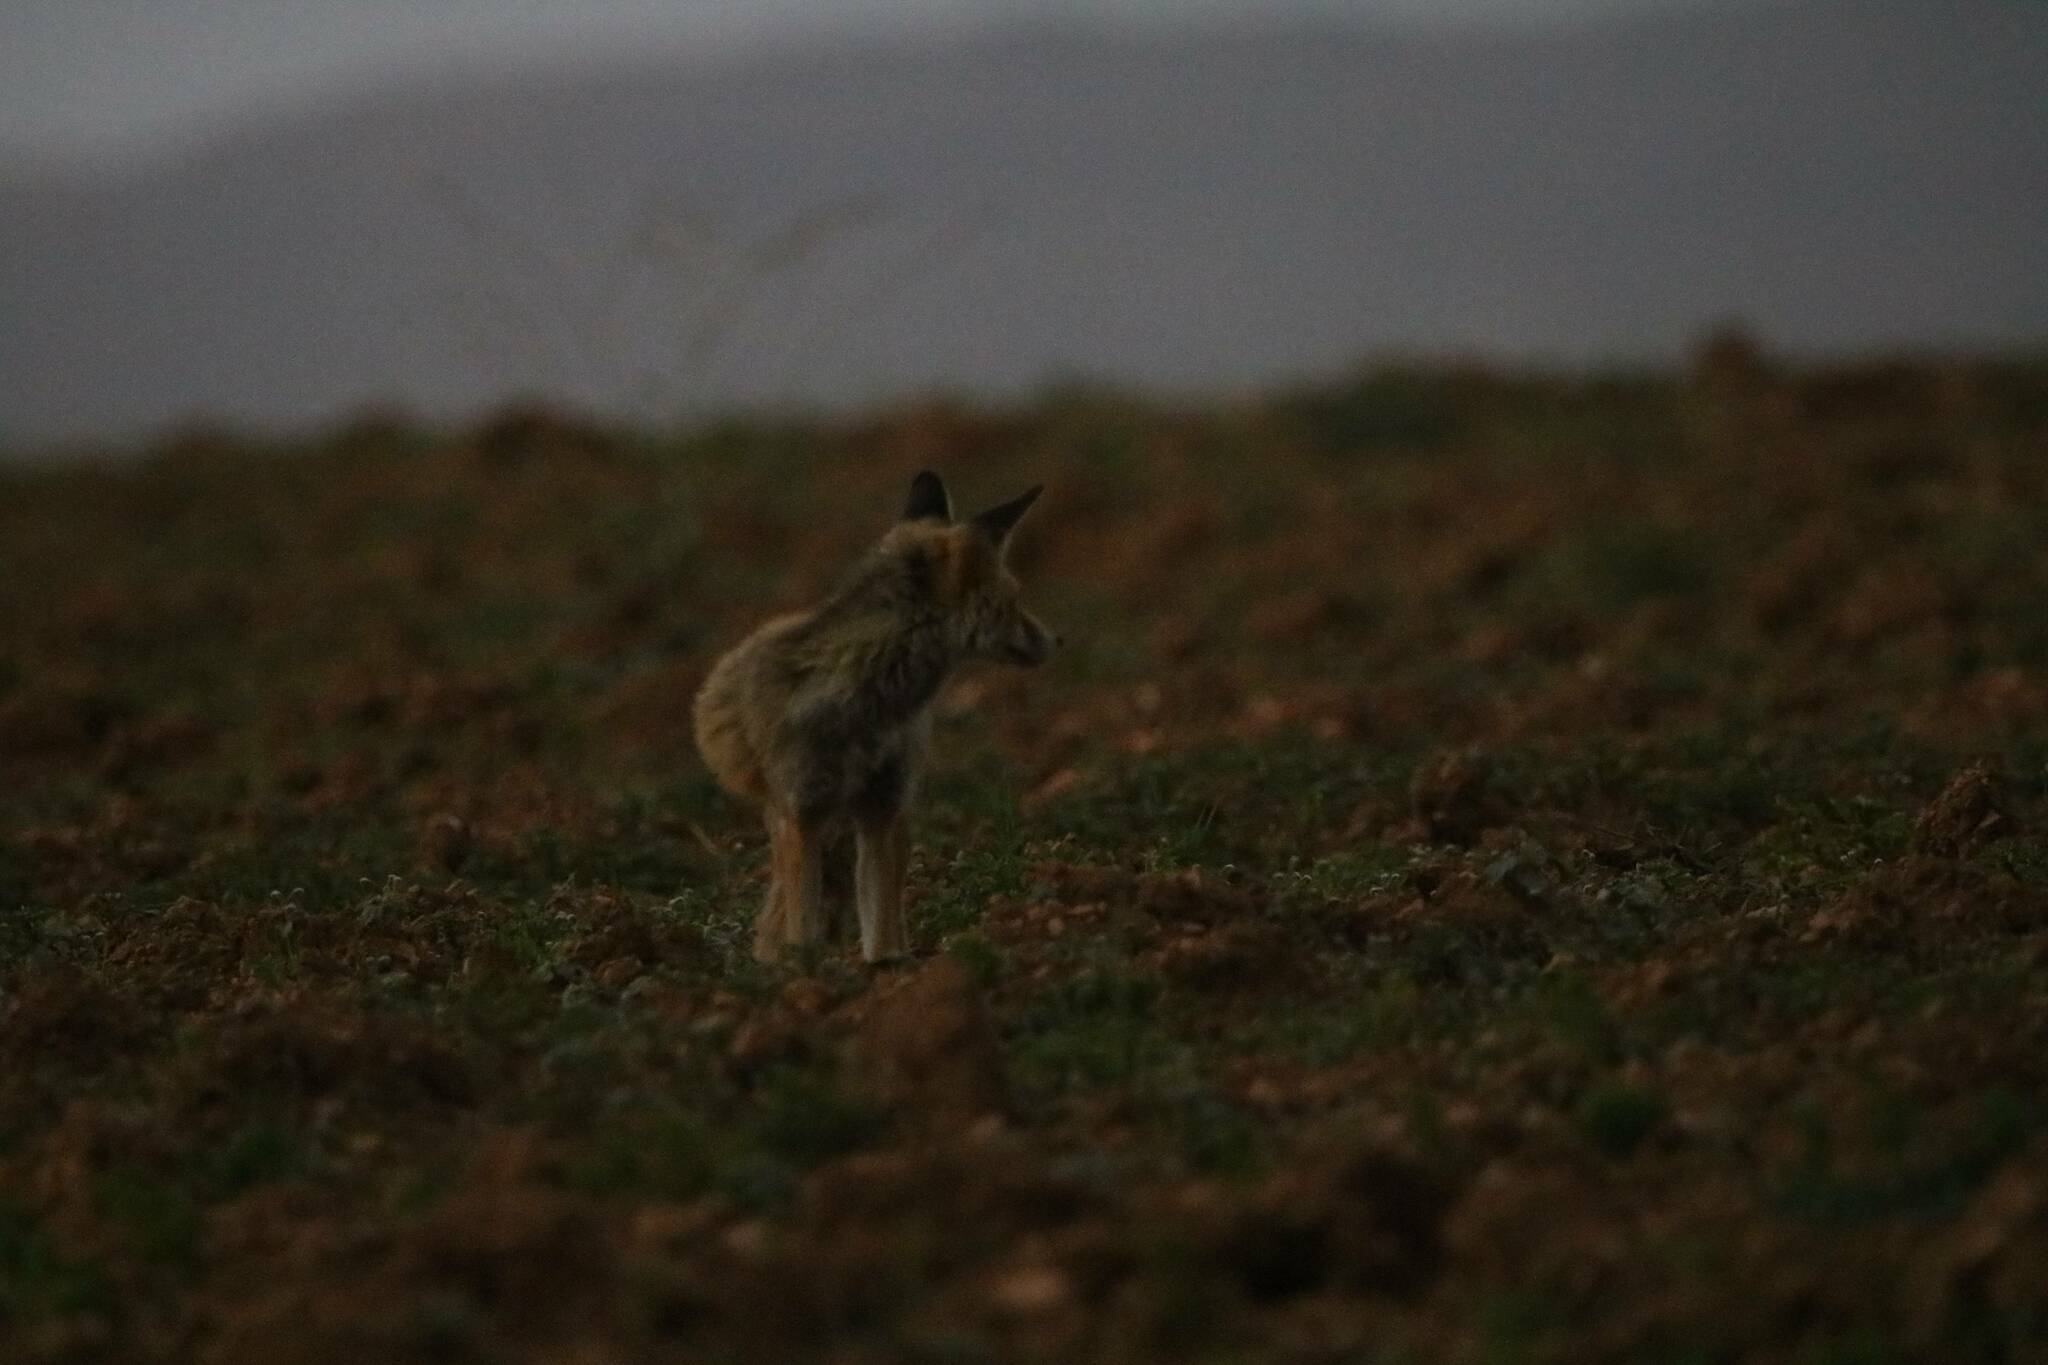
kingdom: Animalia
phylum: Chordata
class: Mammalia
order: Carnivora
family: Canidae
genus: Vulpes
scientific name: Vulpes vulpes
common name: Red fox
